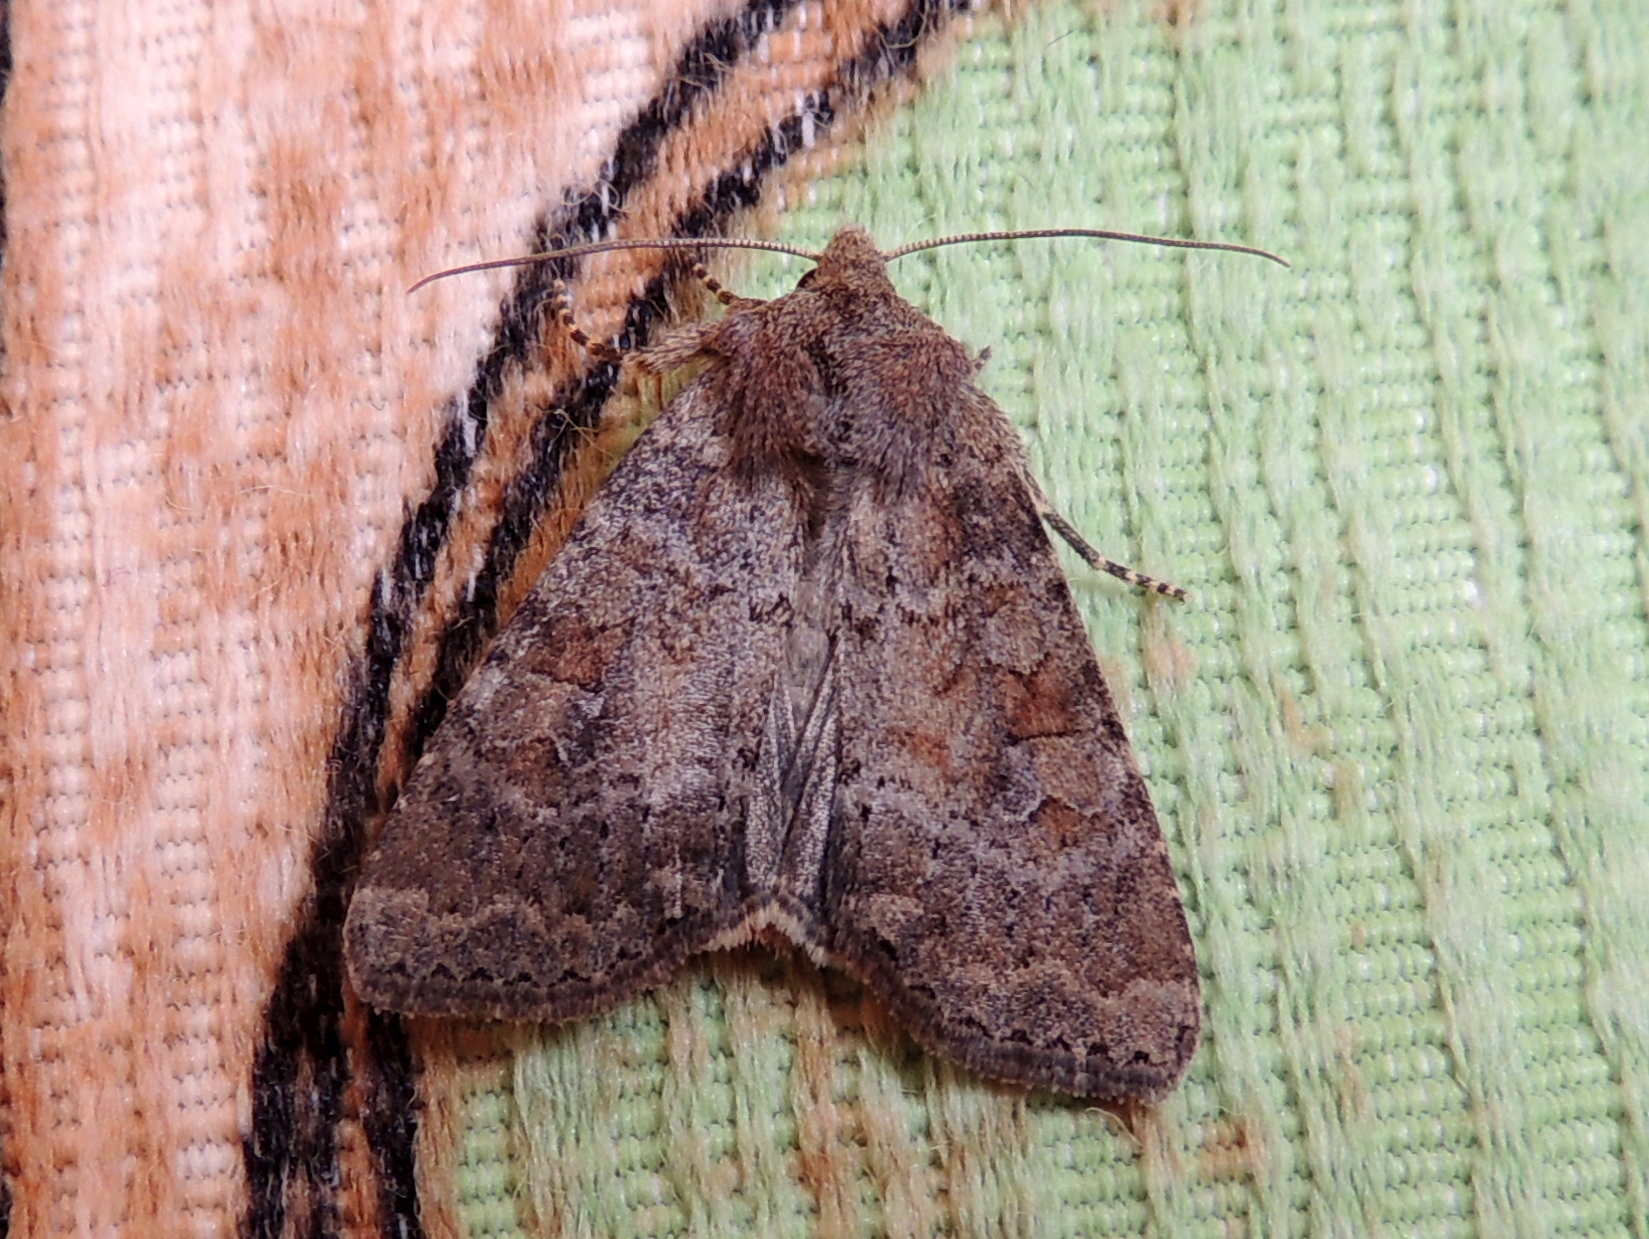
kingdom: Animalia
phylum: Arthropoda
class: Insecta
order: Lepidoptera
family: Noctuidae
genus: Parastichtis
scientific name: Parastichtis suspecta
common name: Suspected
